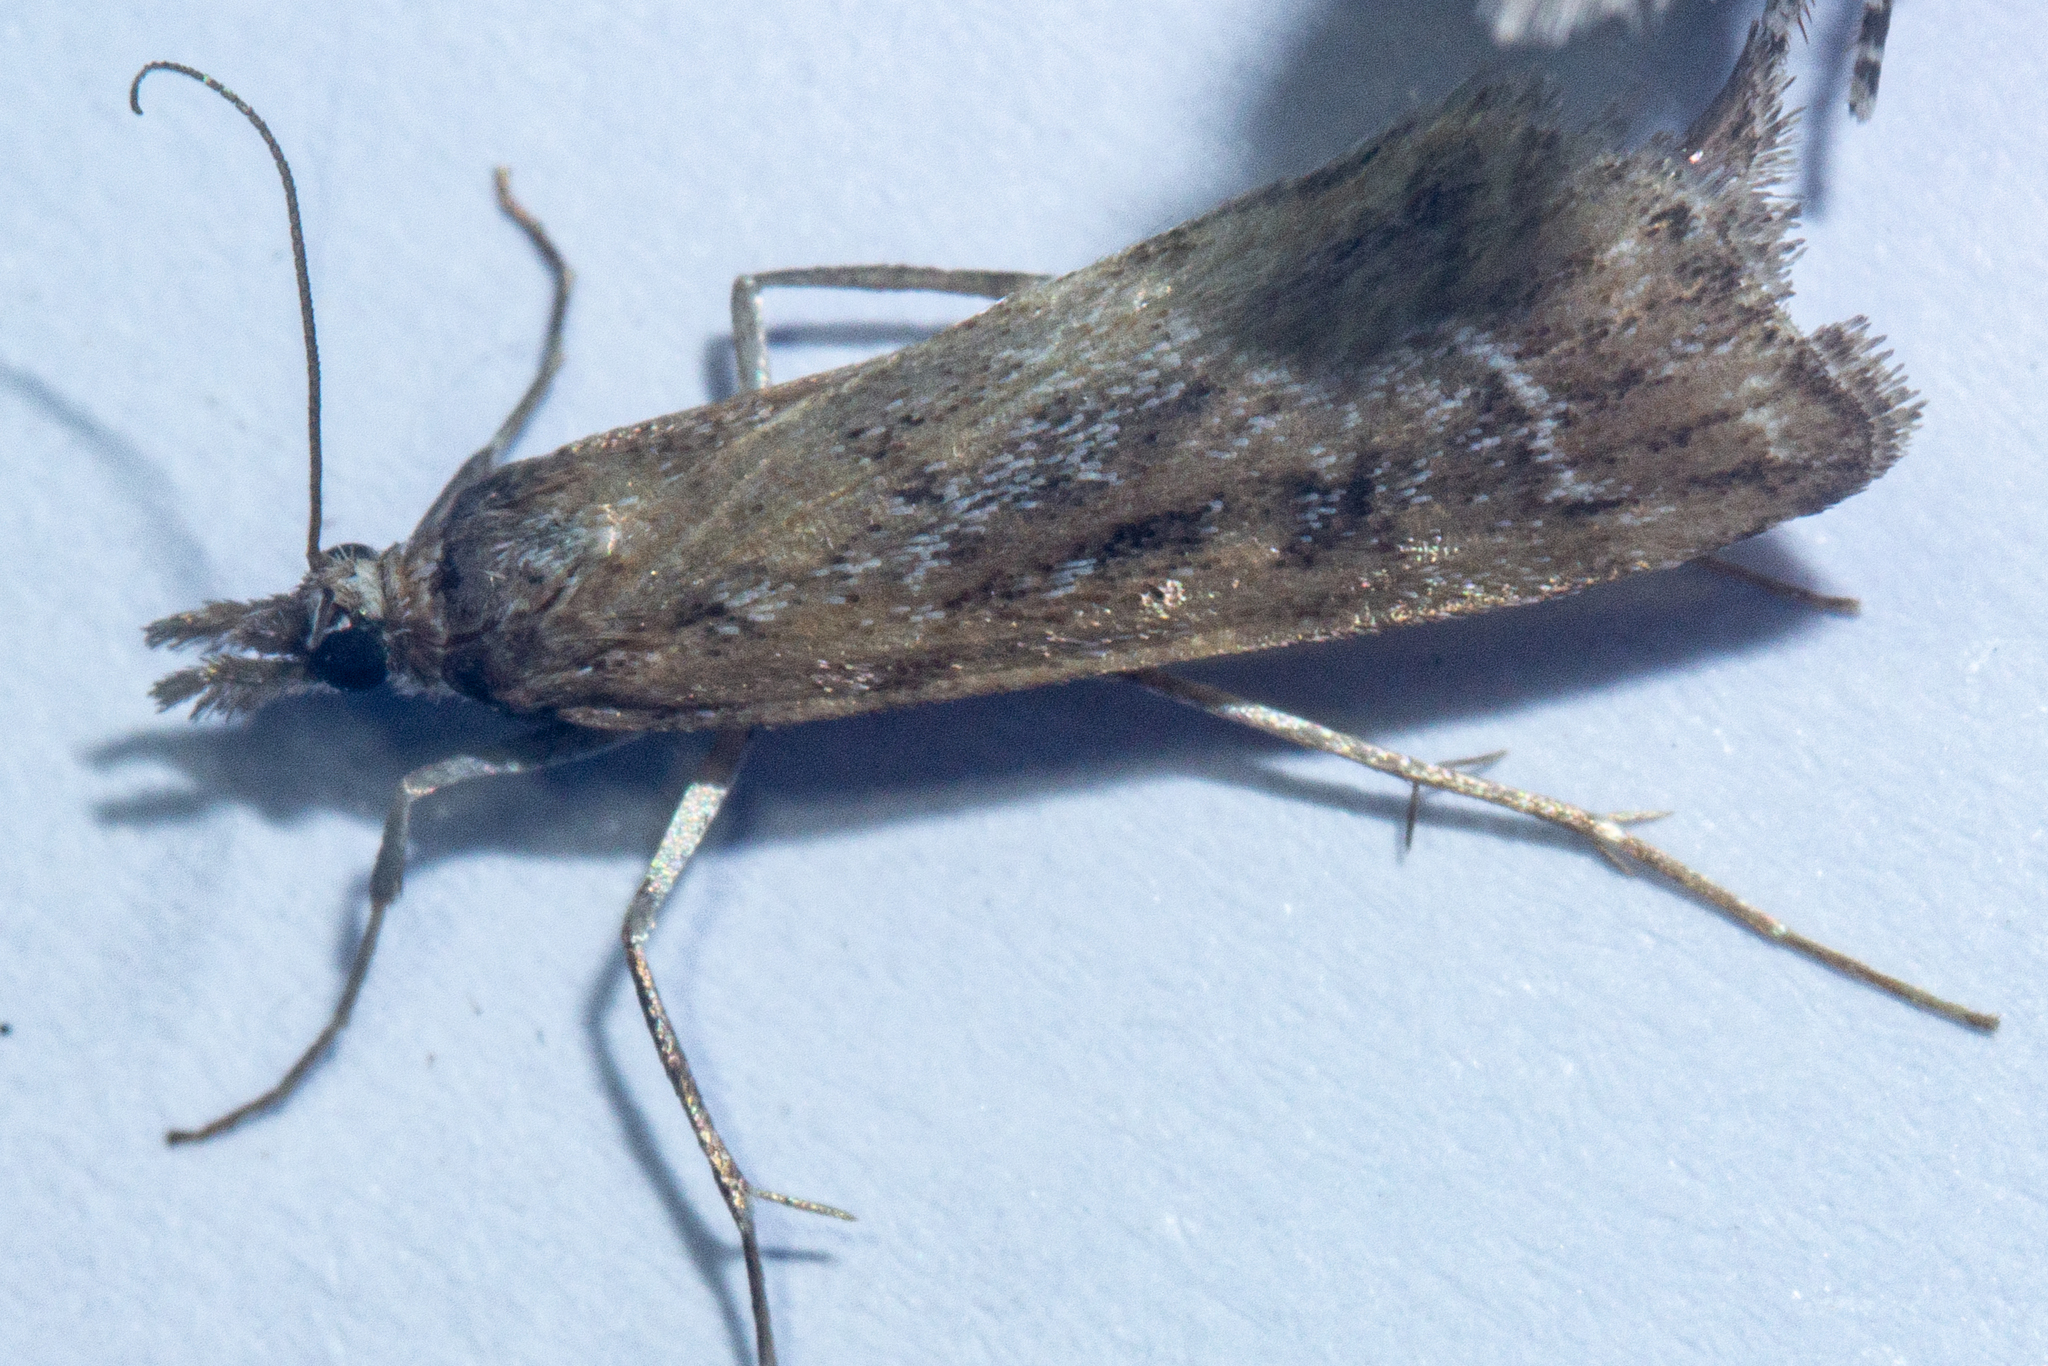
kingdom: Animalia
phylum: Arthropoda
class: Insecta
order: Lepidoptera
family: Crambidae
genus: Eudonia
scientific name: Eudonia octophora
